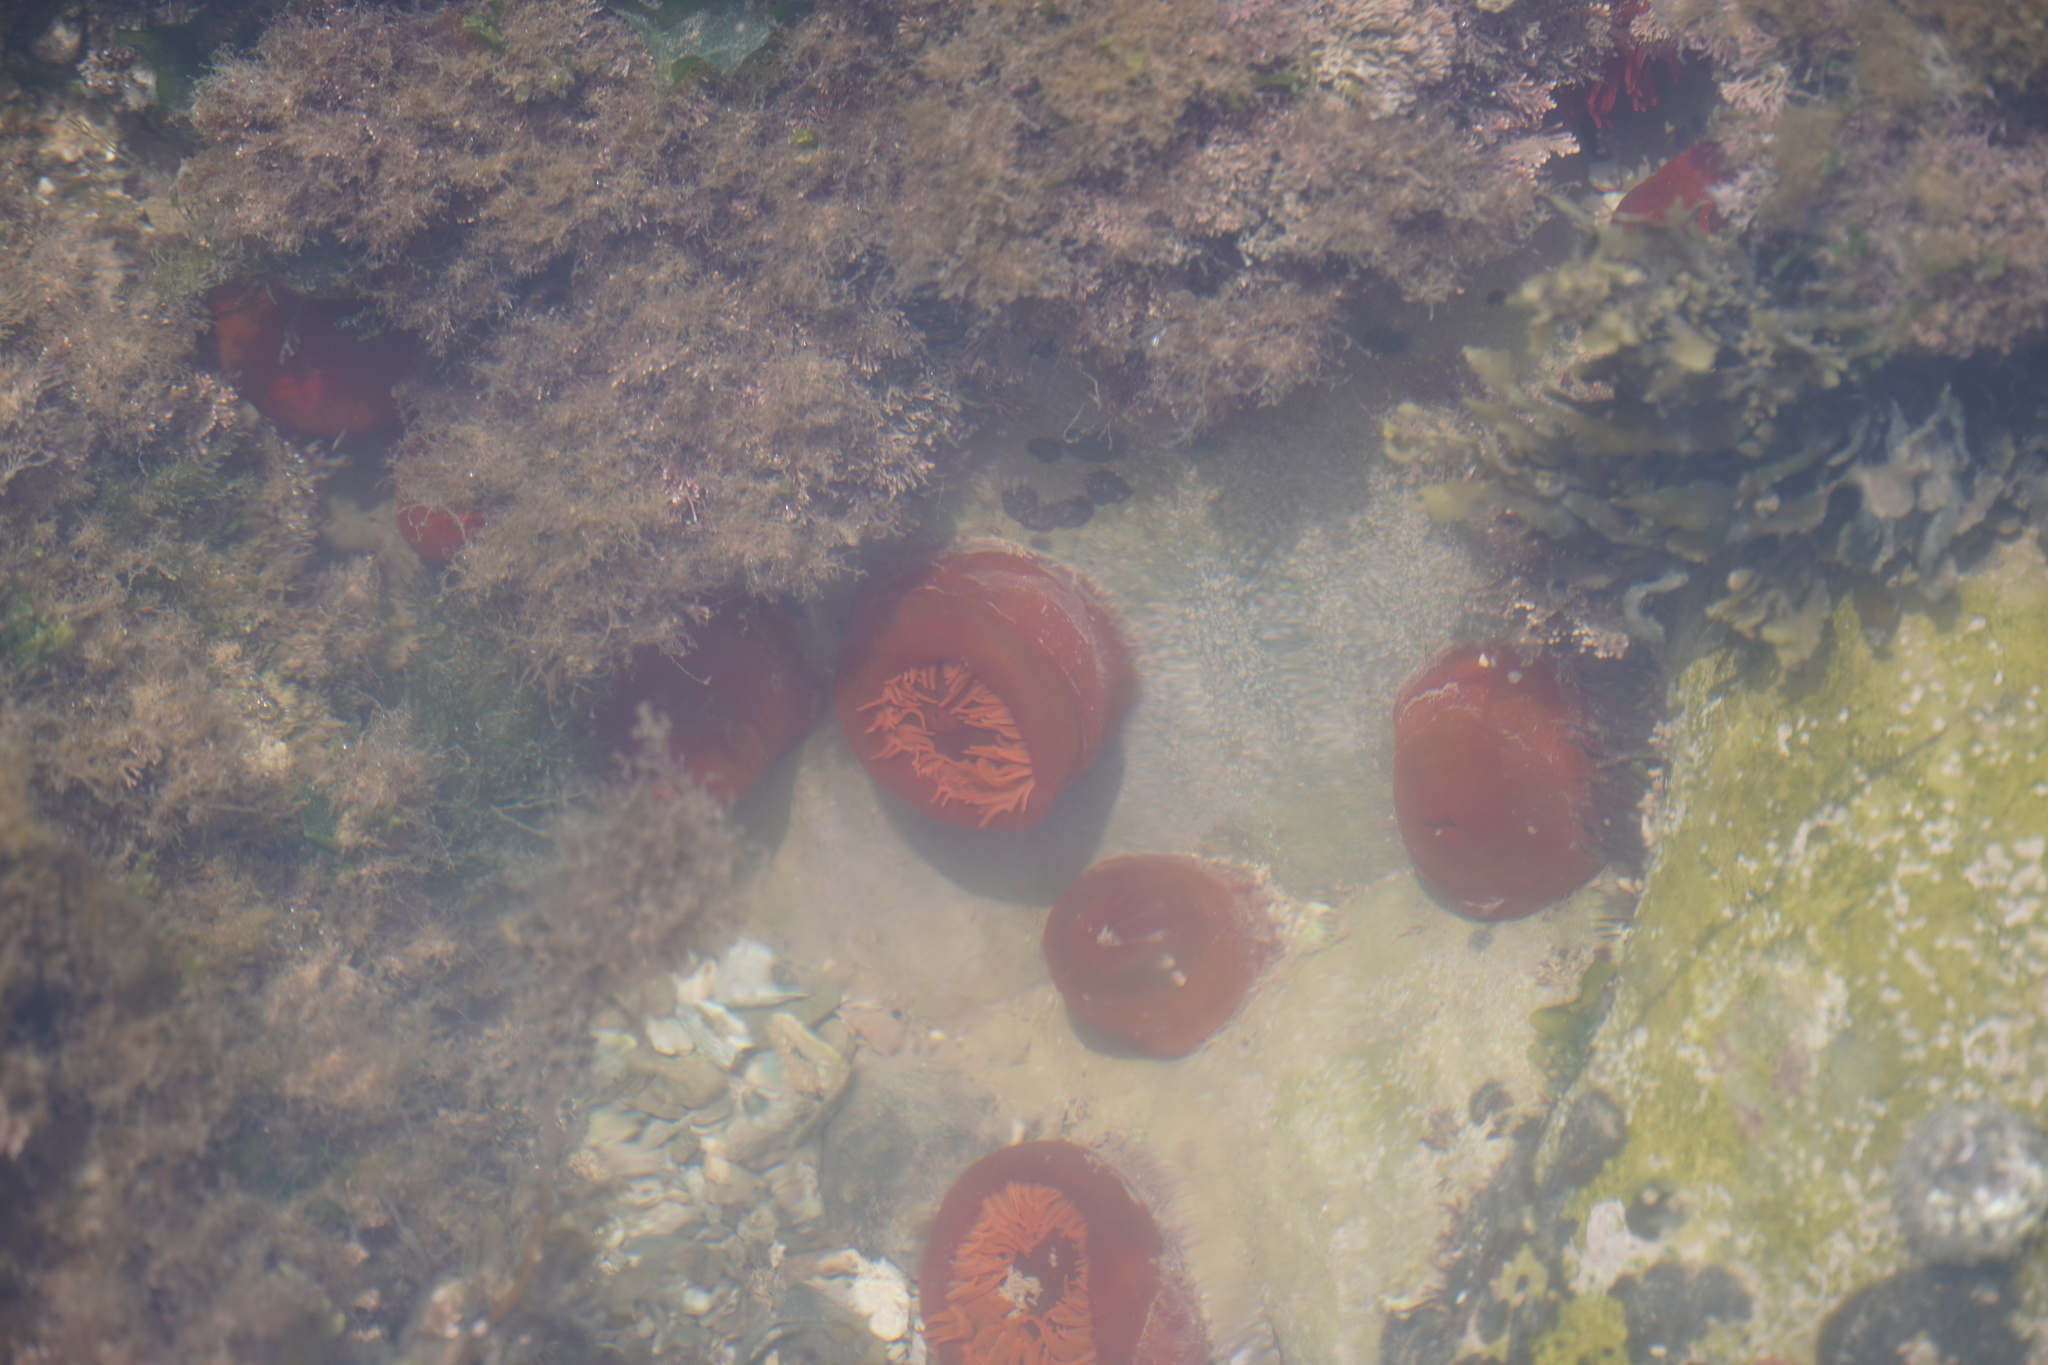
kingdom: Animalia
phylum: Cnidaria
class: Anthozoa
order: Actiniaria
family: Actiniidae
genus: Actinia
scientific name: Actinia ebhayiensis
